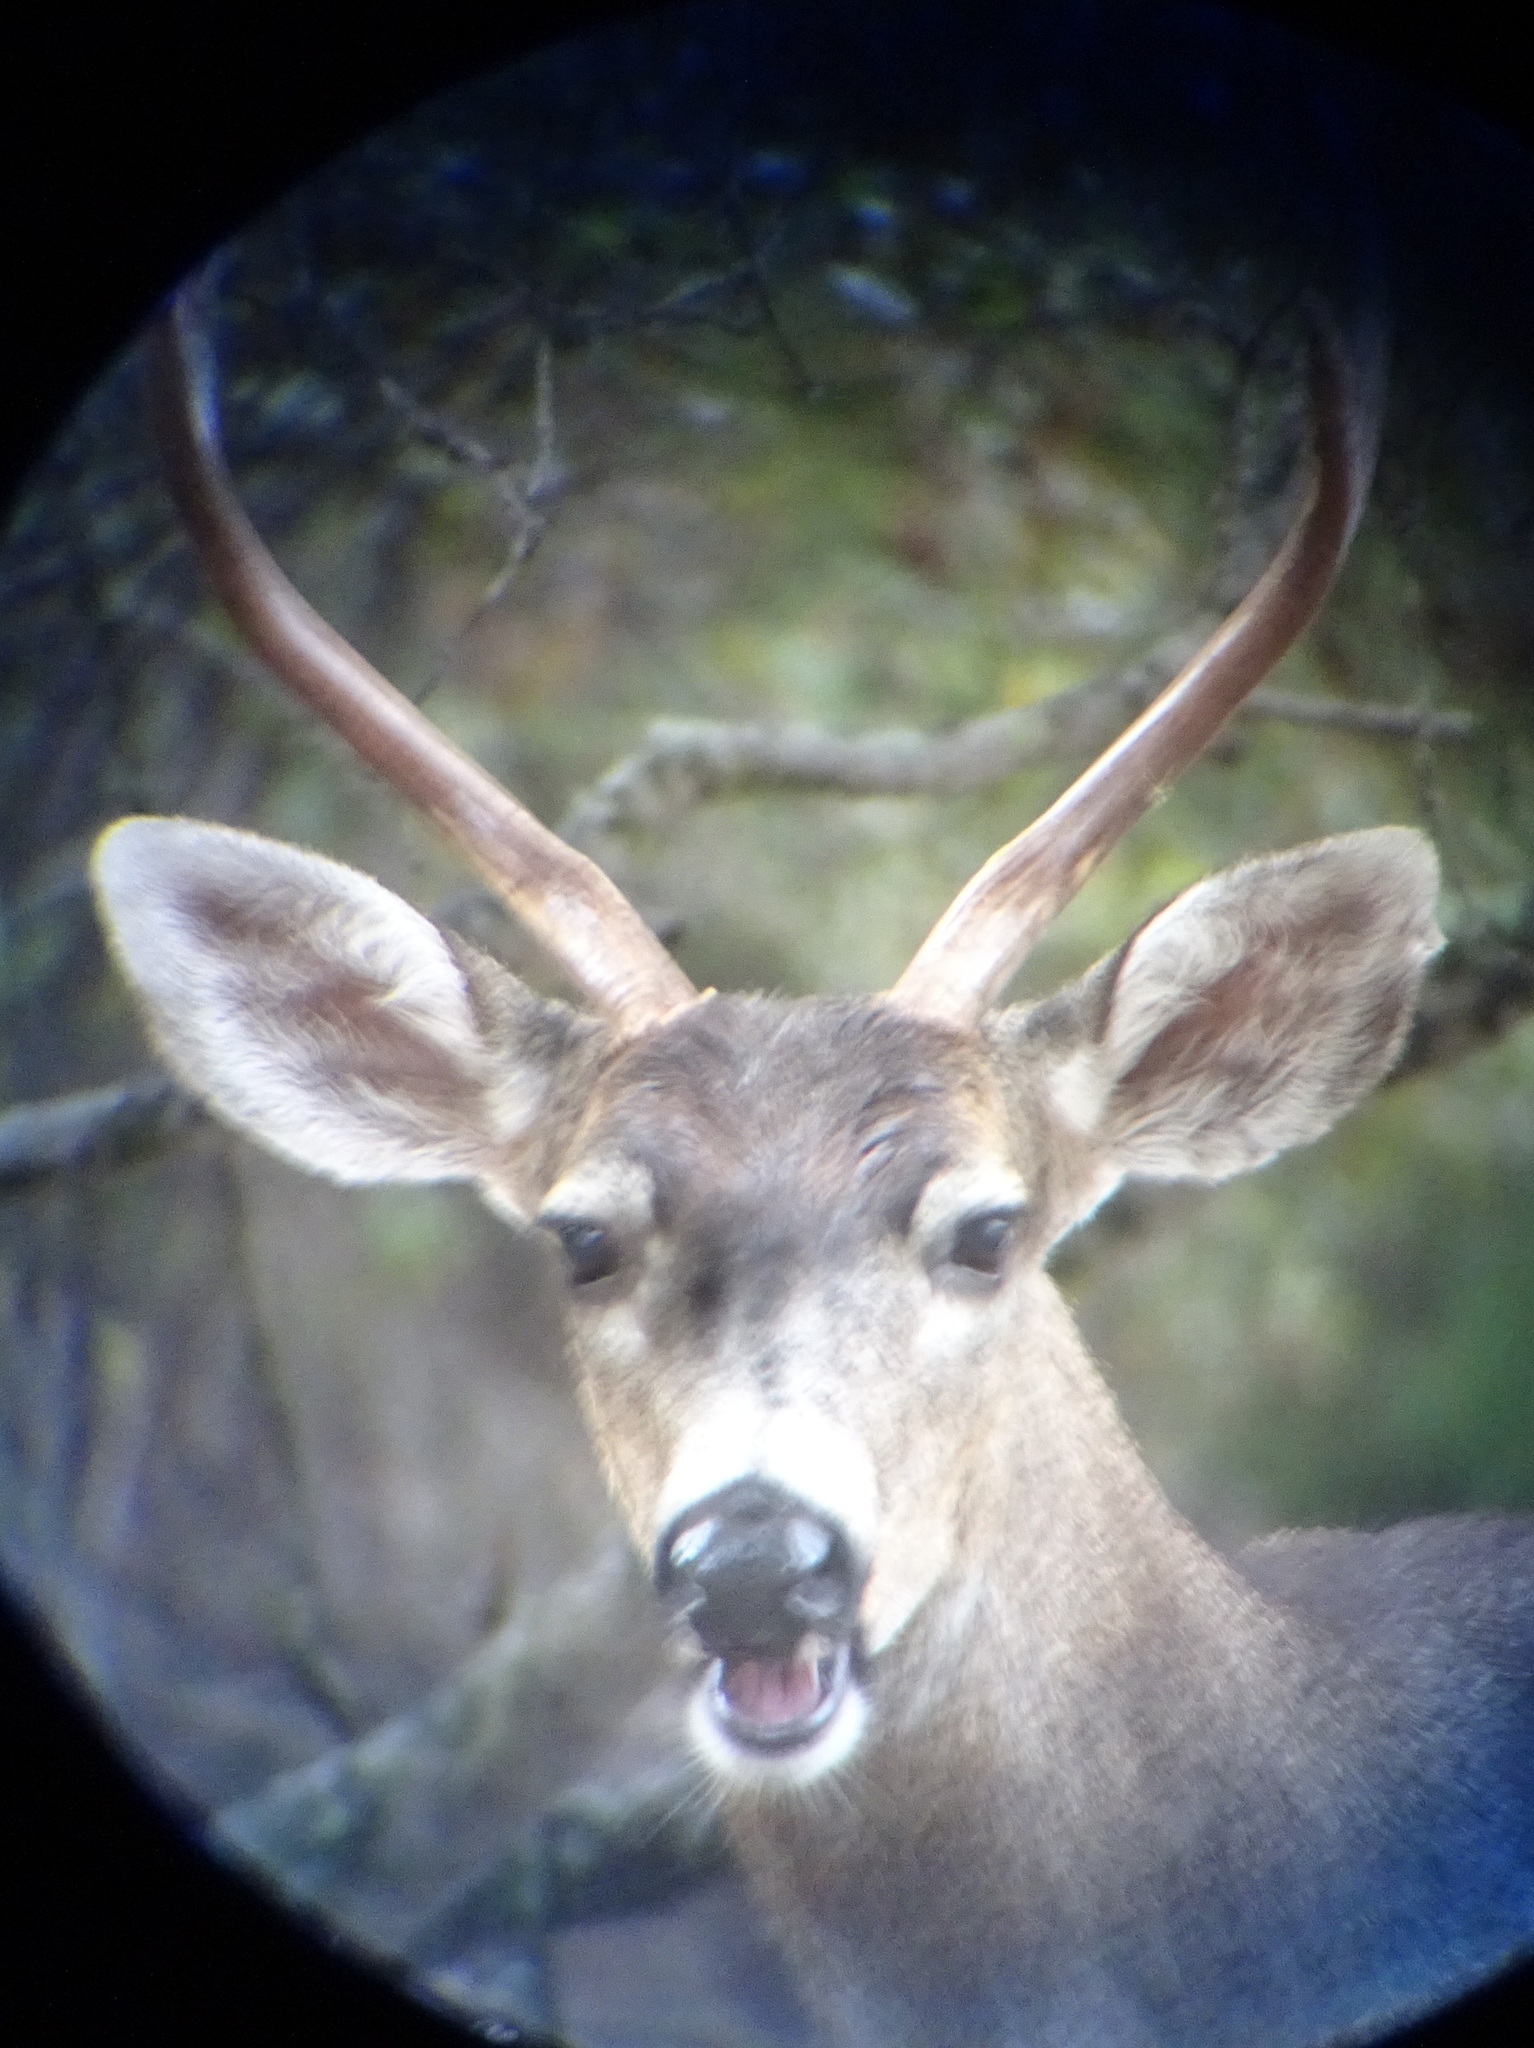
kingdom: Animalia
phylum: Chordata
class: Mammalia
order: Artiodactyla
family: Cervidae
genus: Odocoileus
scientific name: Odocoileus hemionus
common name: Mule deer
